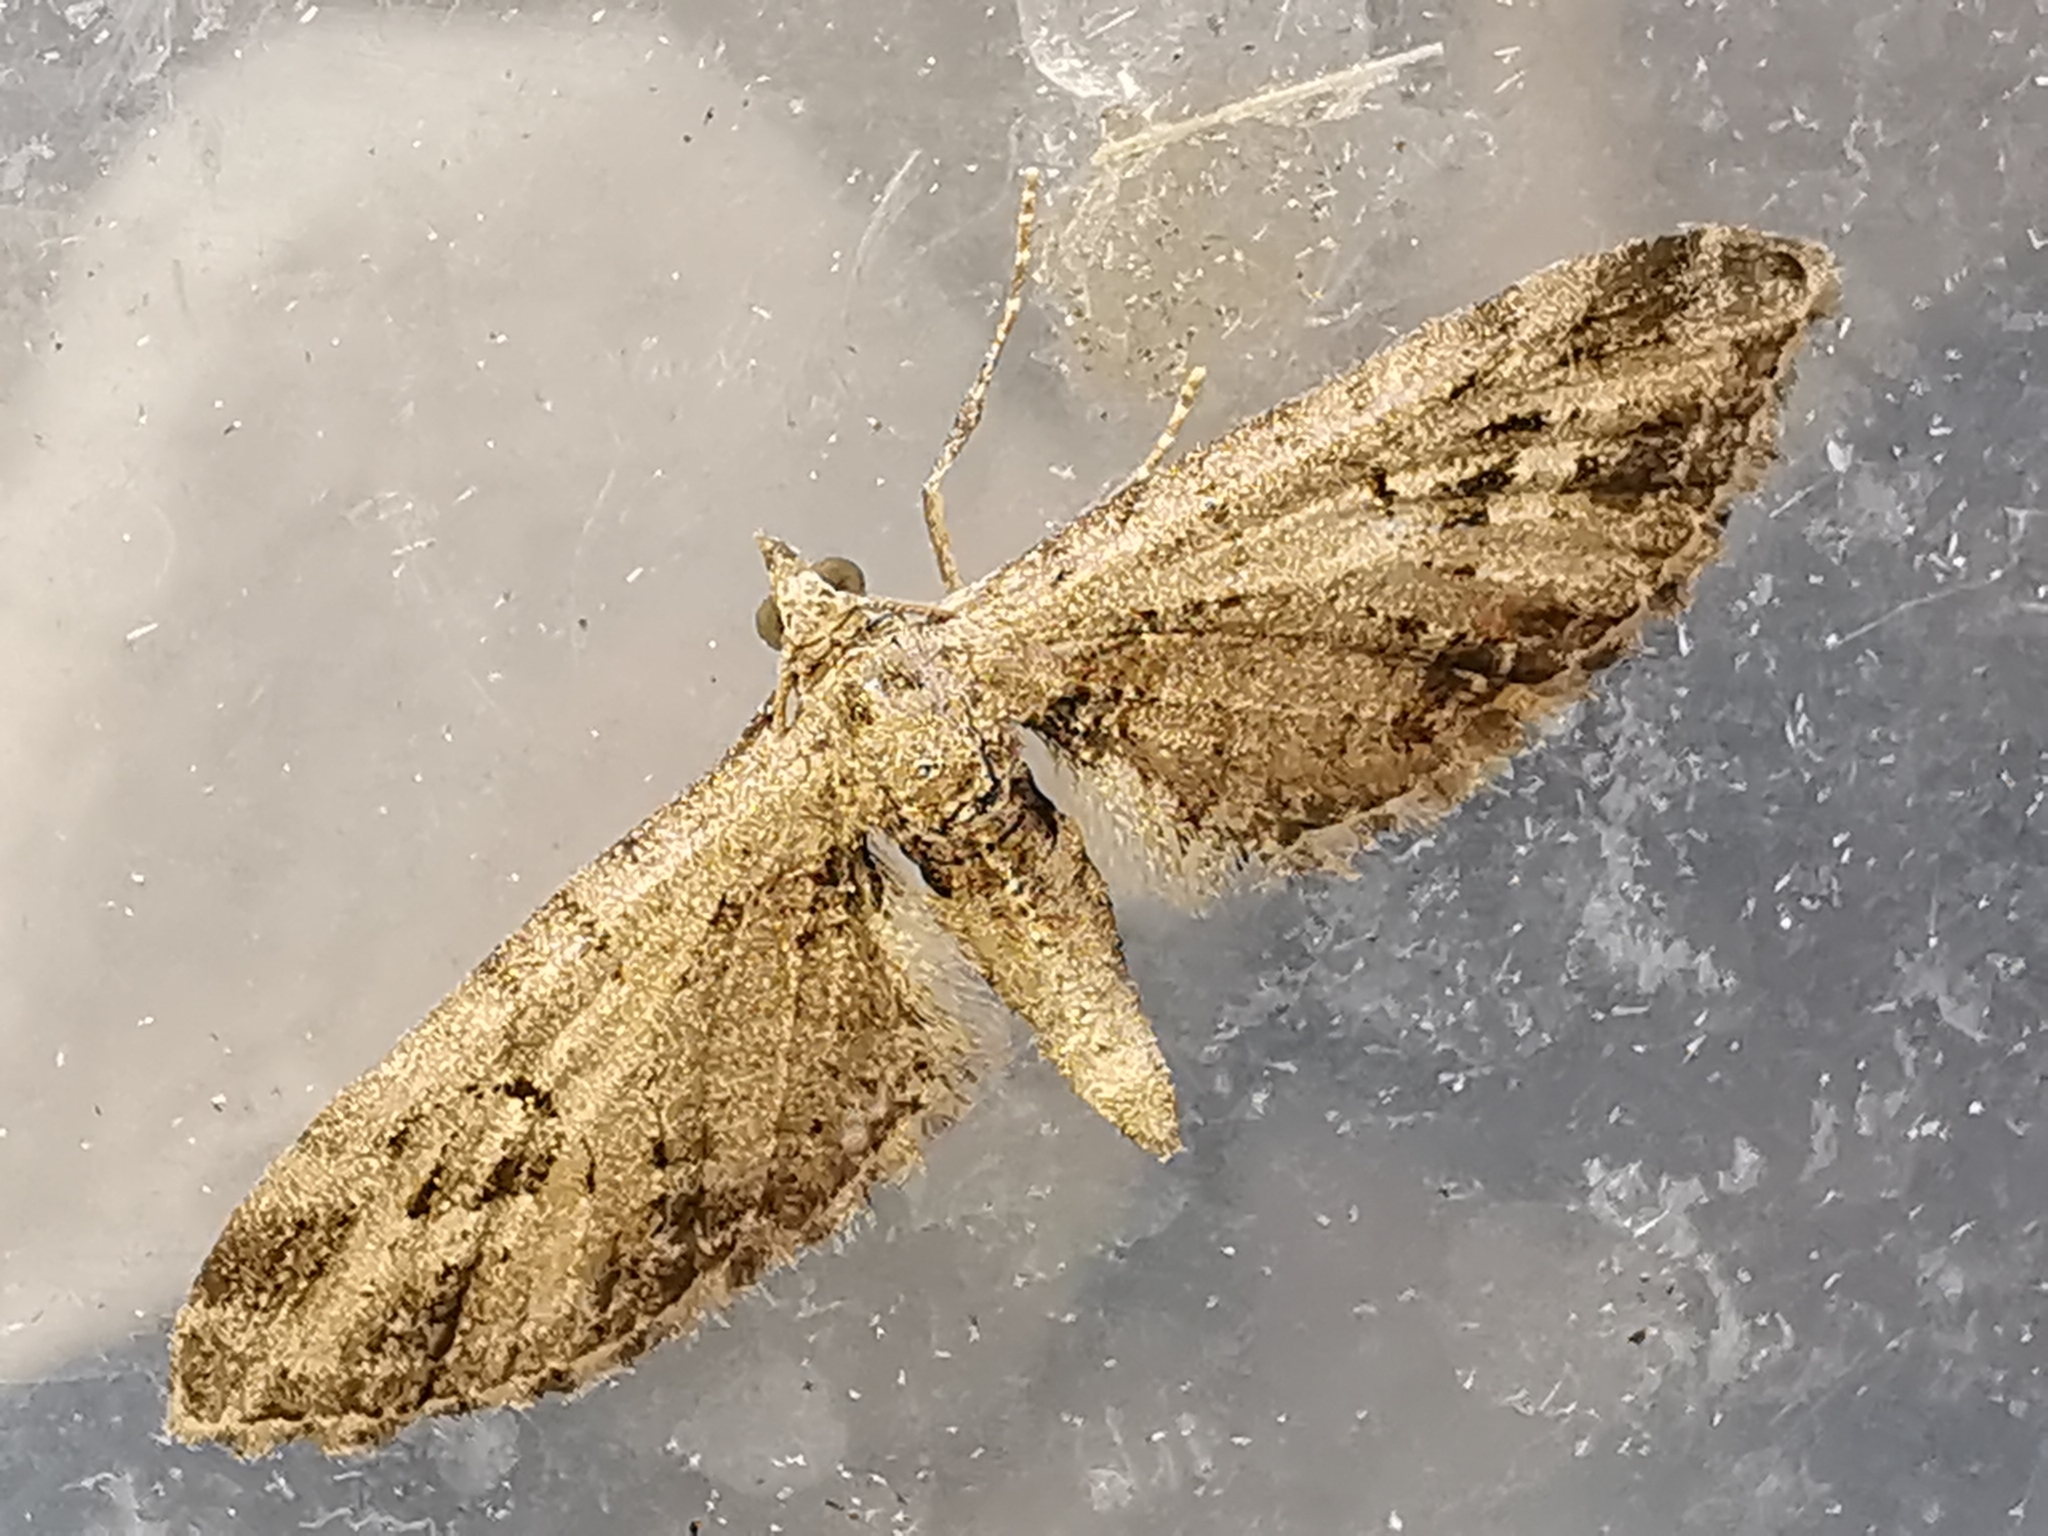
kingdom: Animalia
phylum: Arthropoda
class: Insecta
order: Lepidoptera
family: Geometridae
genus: Eupithecia
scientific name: Eupithecia exiguata
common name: Mottled pug
